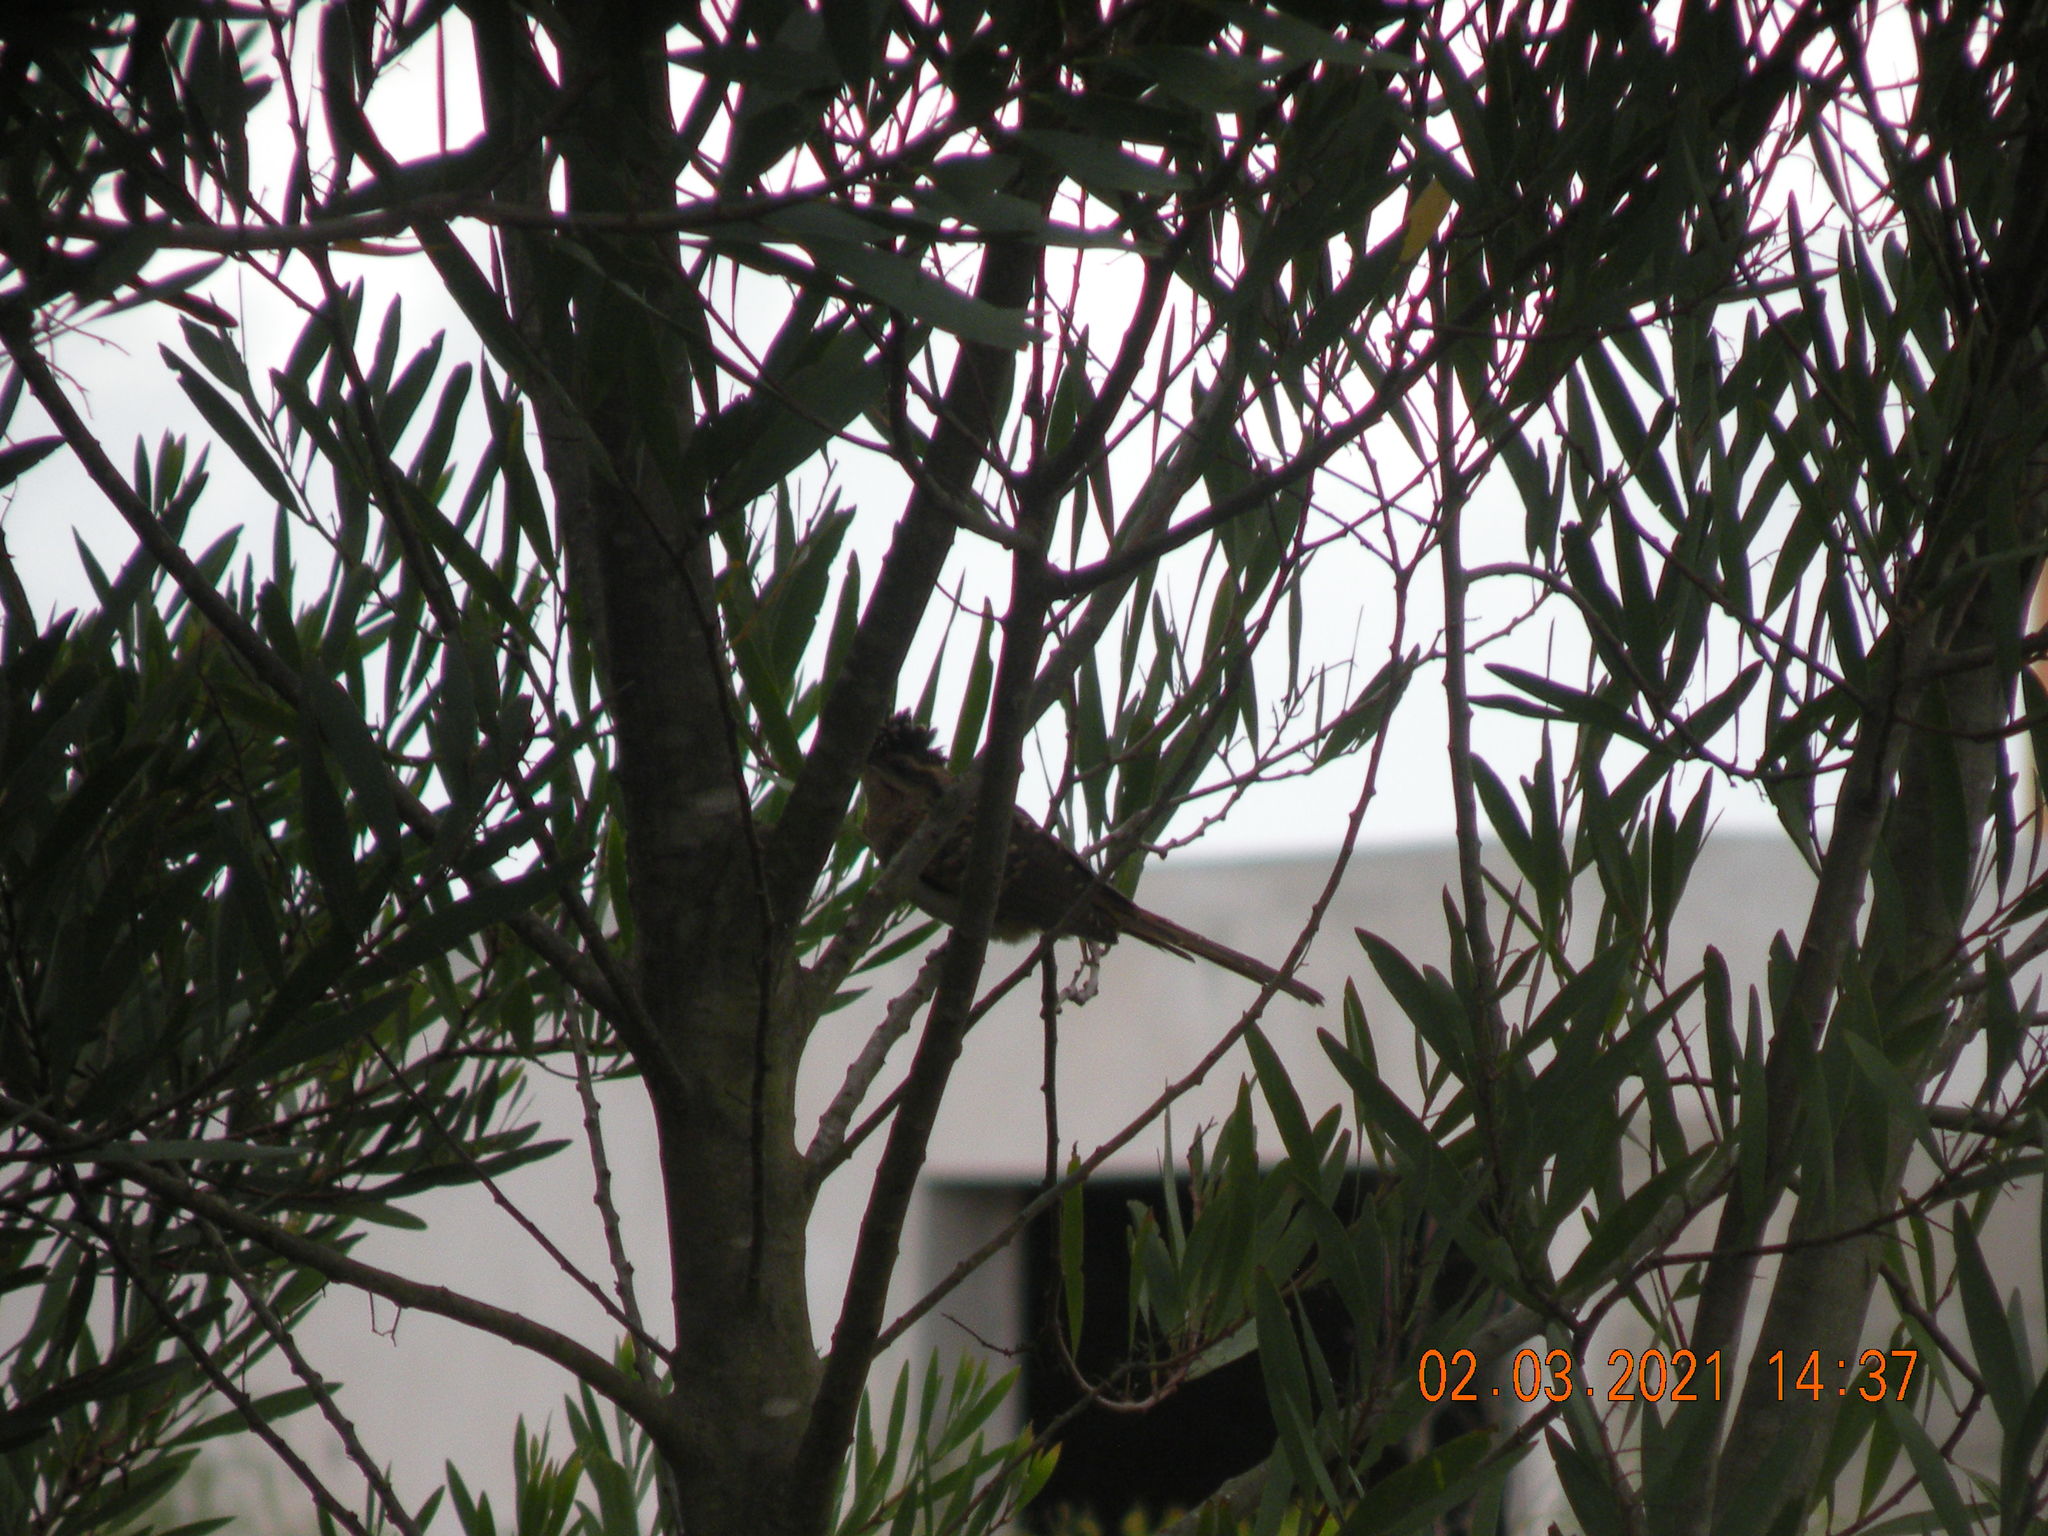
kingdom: Animalia
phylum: Chordata
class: Aves
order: Cuculiformes
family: Cuculidae
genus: Tapera
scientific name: Tapera naevia
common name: Striped cuckoo
